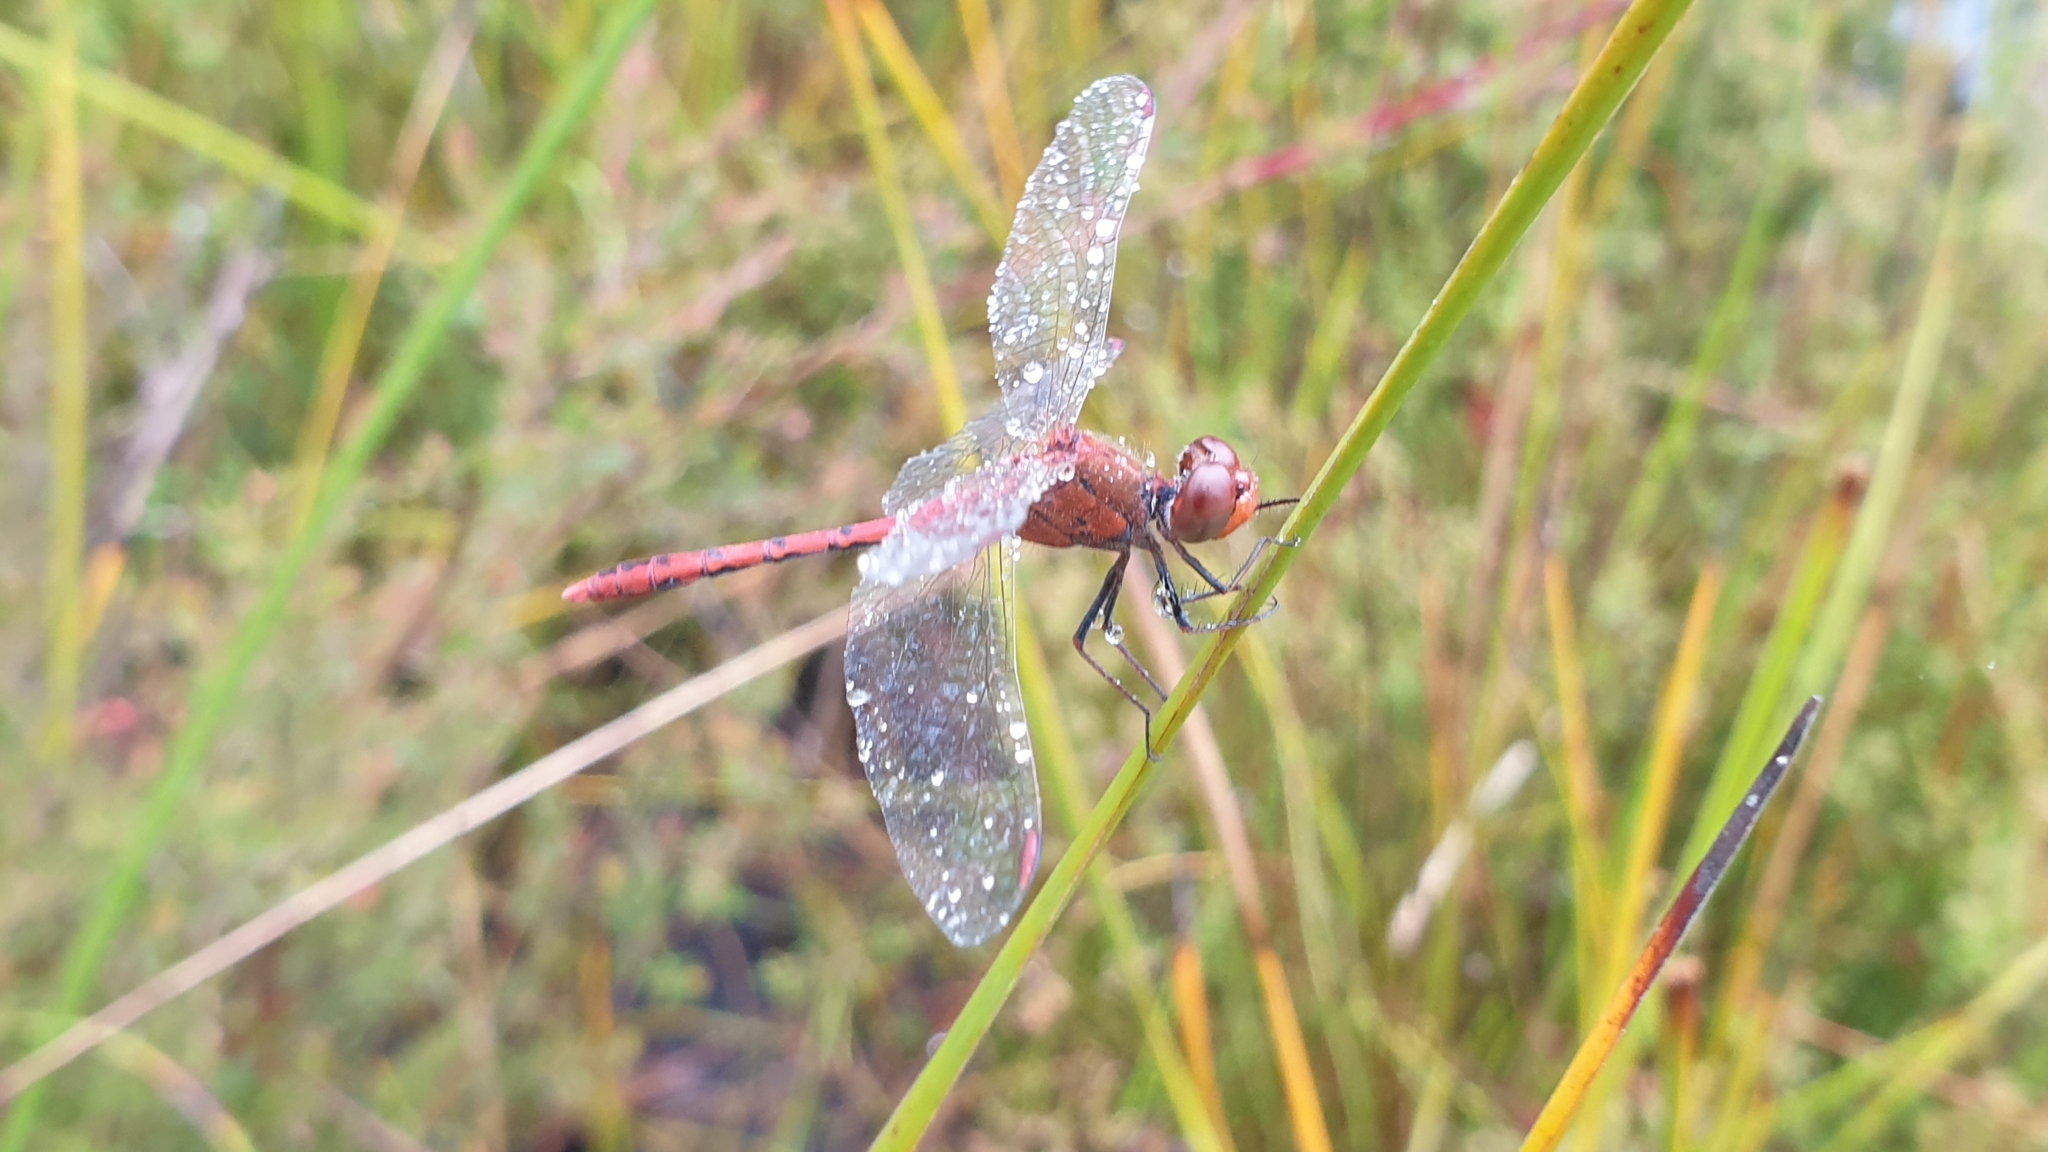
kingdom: Animalia
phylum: Arthropoda
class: Insecta
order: Odonata
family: Libellulidae
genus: Diplacodes
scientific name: Diplacodes bipunctata
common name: Red percher dragonfly
